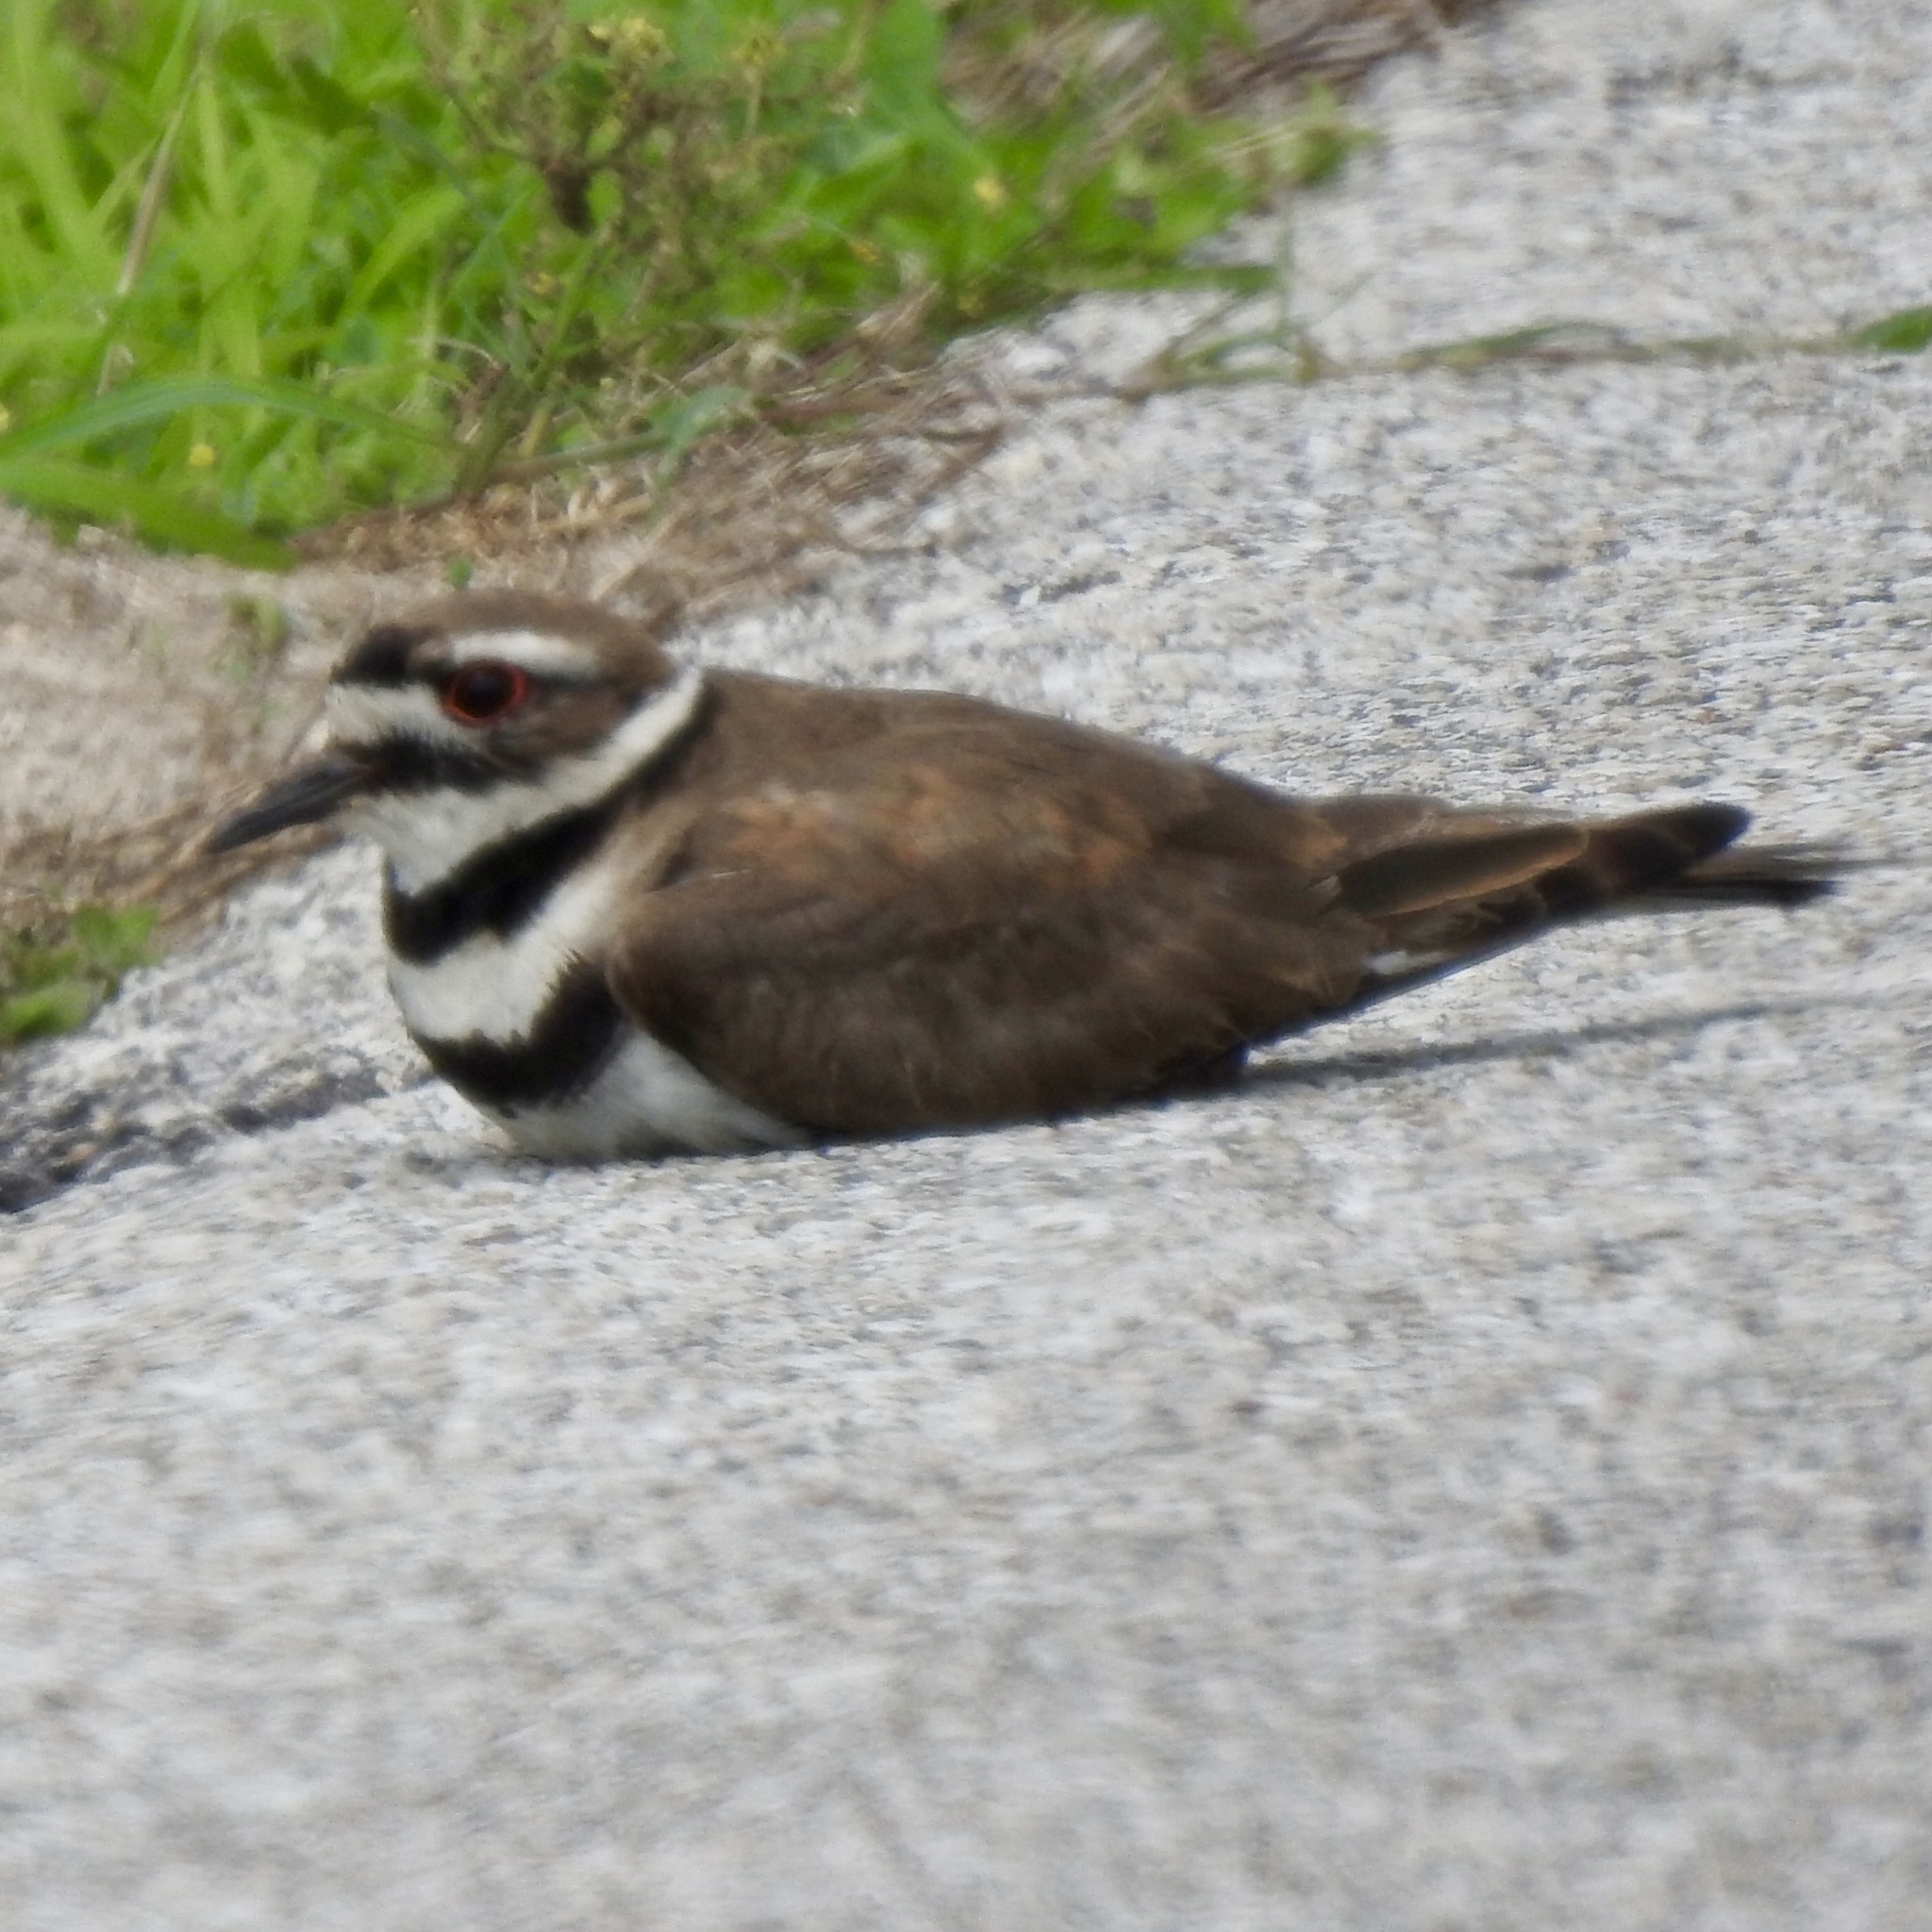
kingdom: Animalia
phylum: Chordata
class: Aves
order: Charadriiformes
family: Charadriidae
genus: Charadrius
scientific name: Charadrius vociferus
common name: Killdeer
